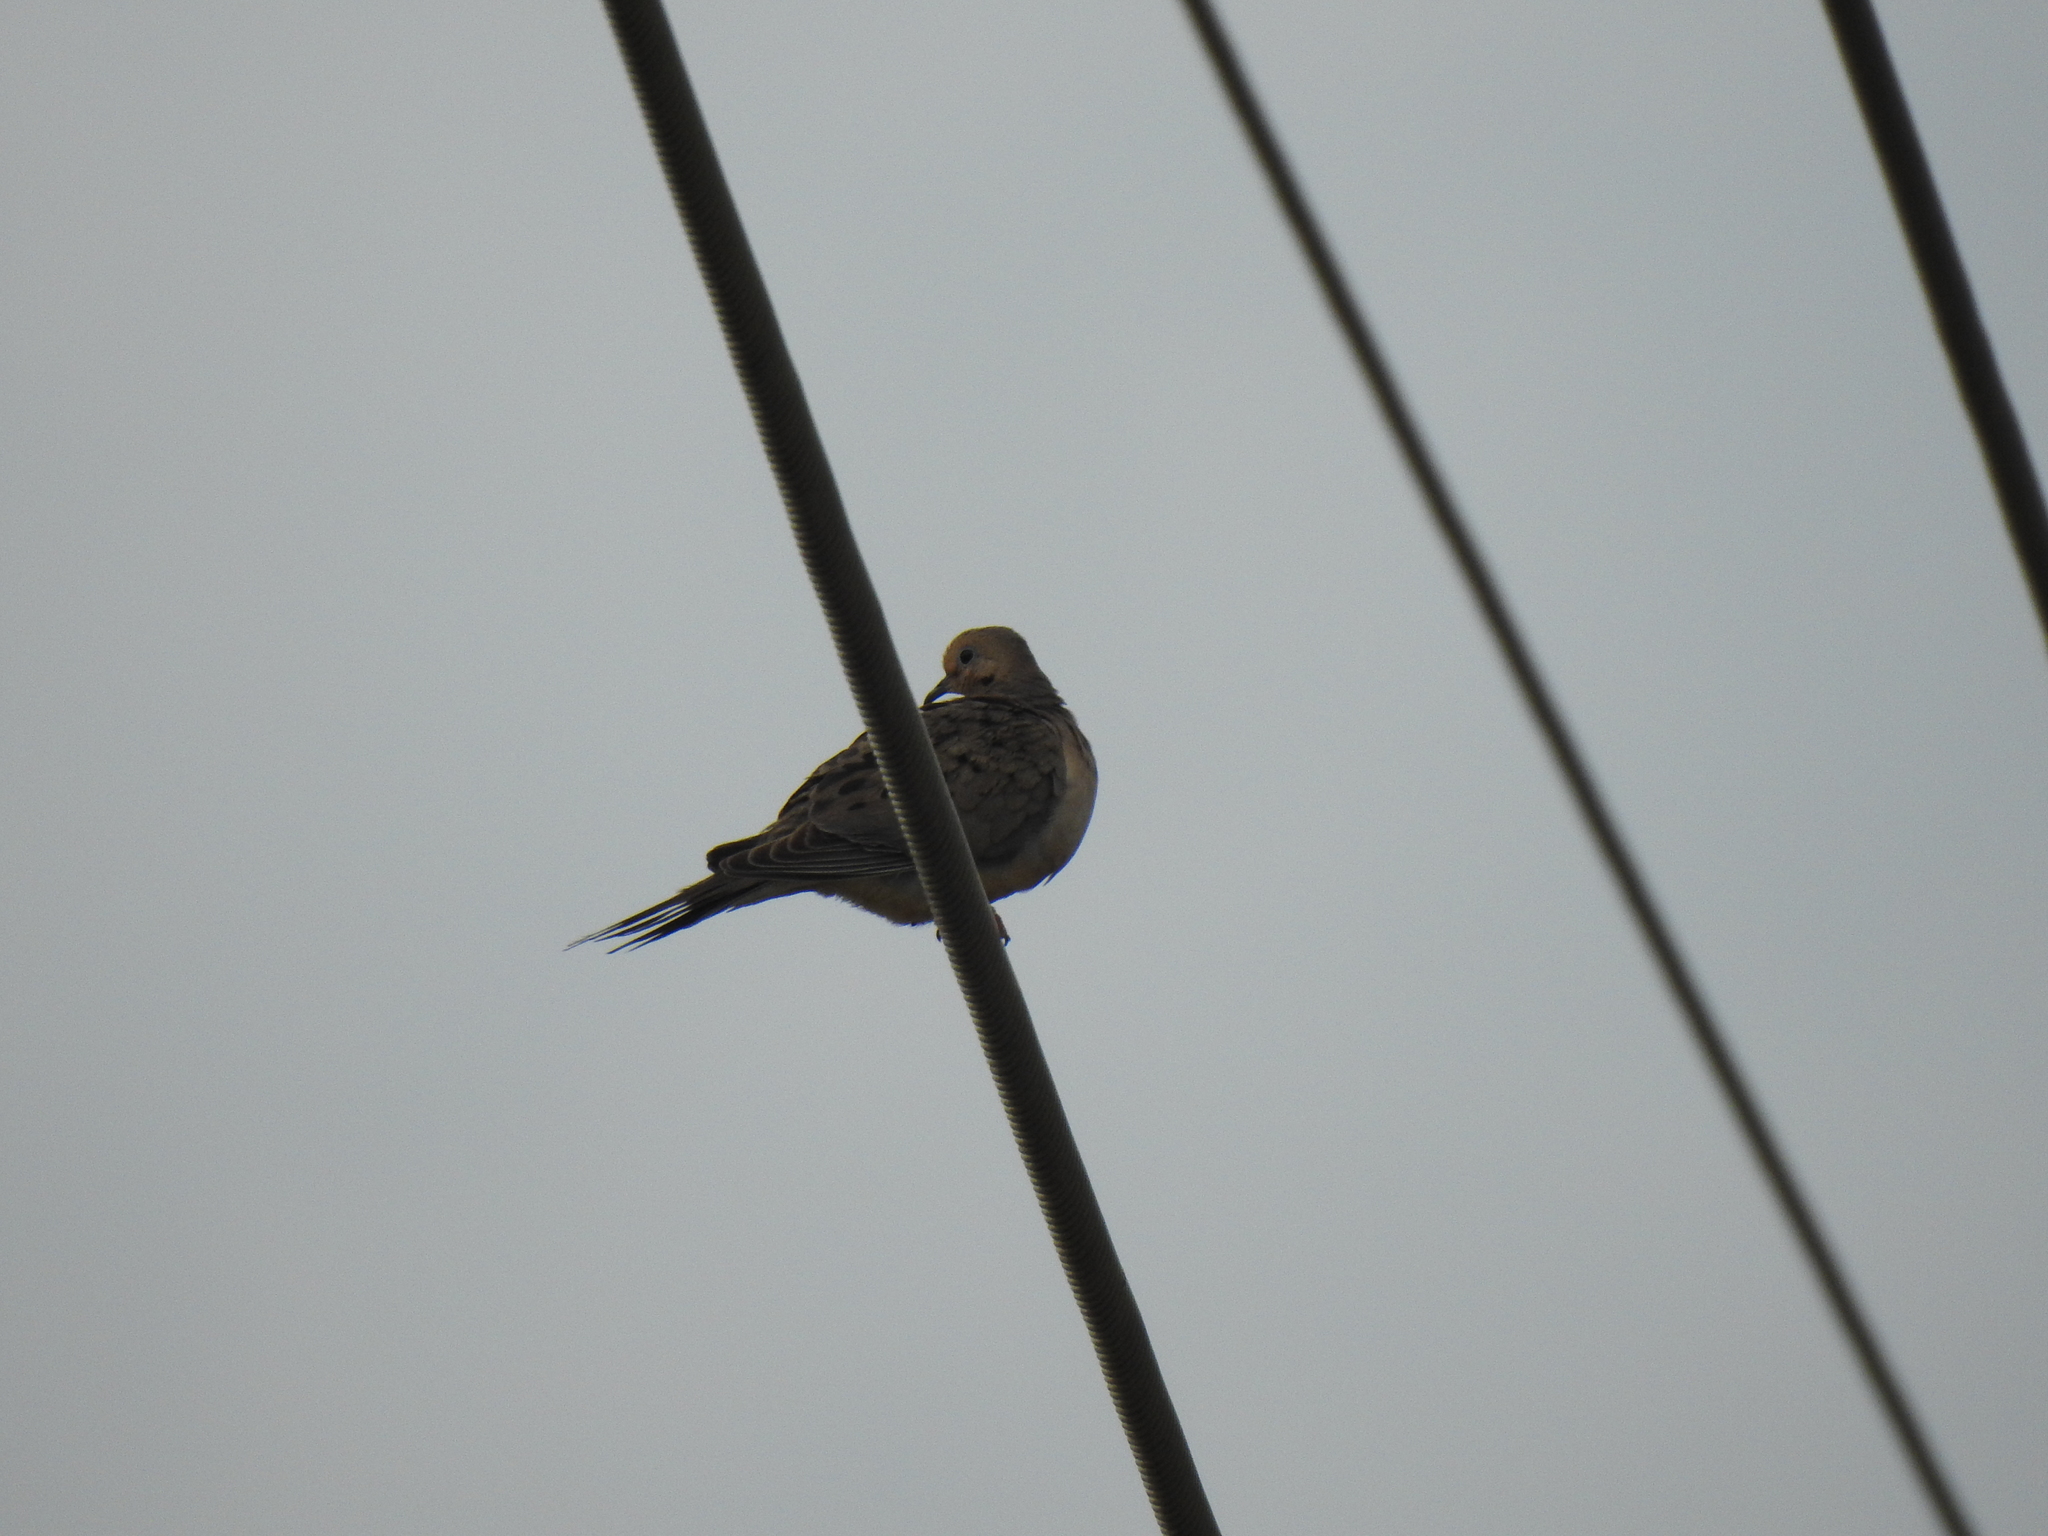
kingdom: Animalia
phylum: Chordata
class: Aves
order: Columbiformes
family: Columbidae
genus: Zenaida
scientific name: Zenaida macroura
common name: Mourning dove
